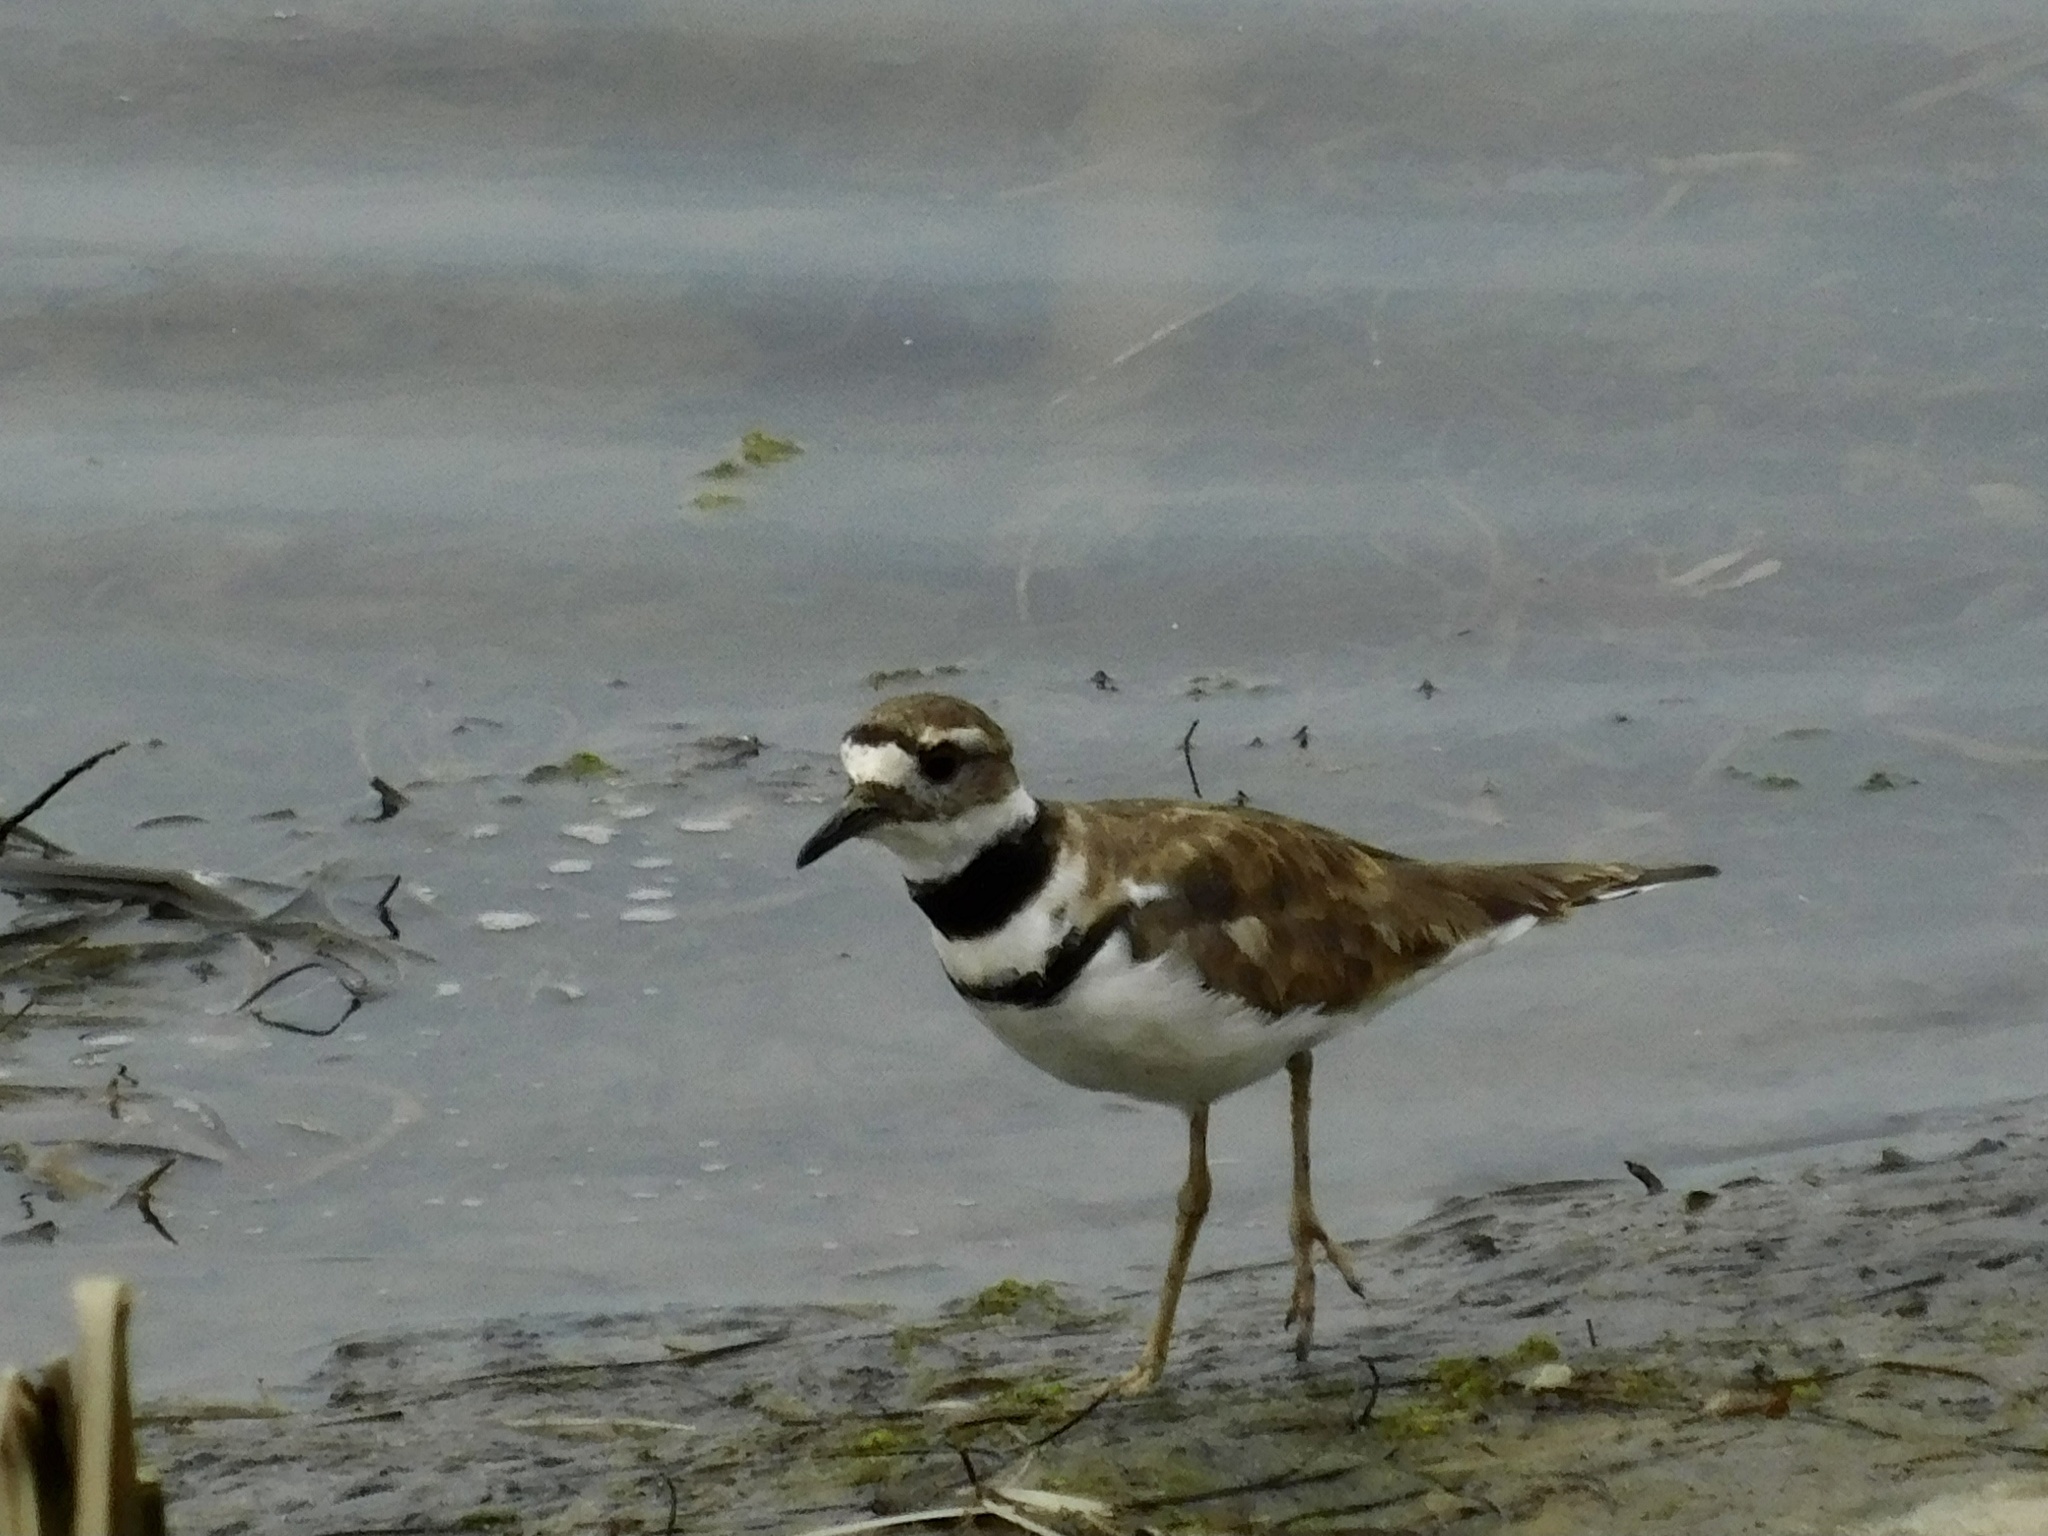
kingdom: Animalia
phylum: Chordata
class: Aves
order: Charadriiformes
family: Charadriidae
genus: Charadrius
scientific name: Charadrius vociferus
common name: Killdeer
